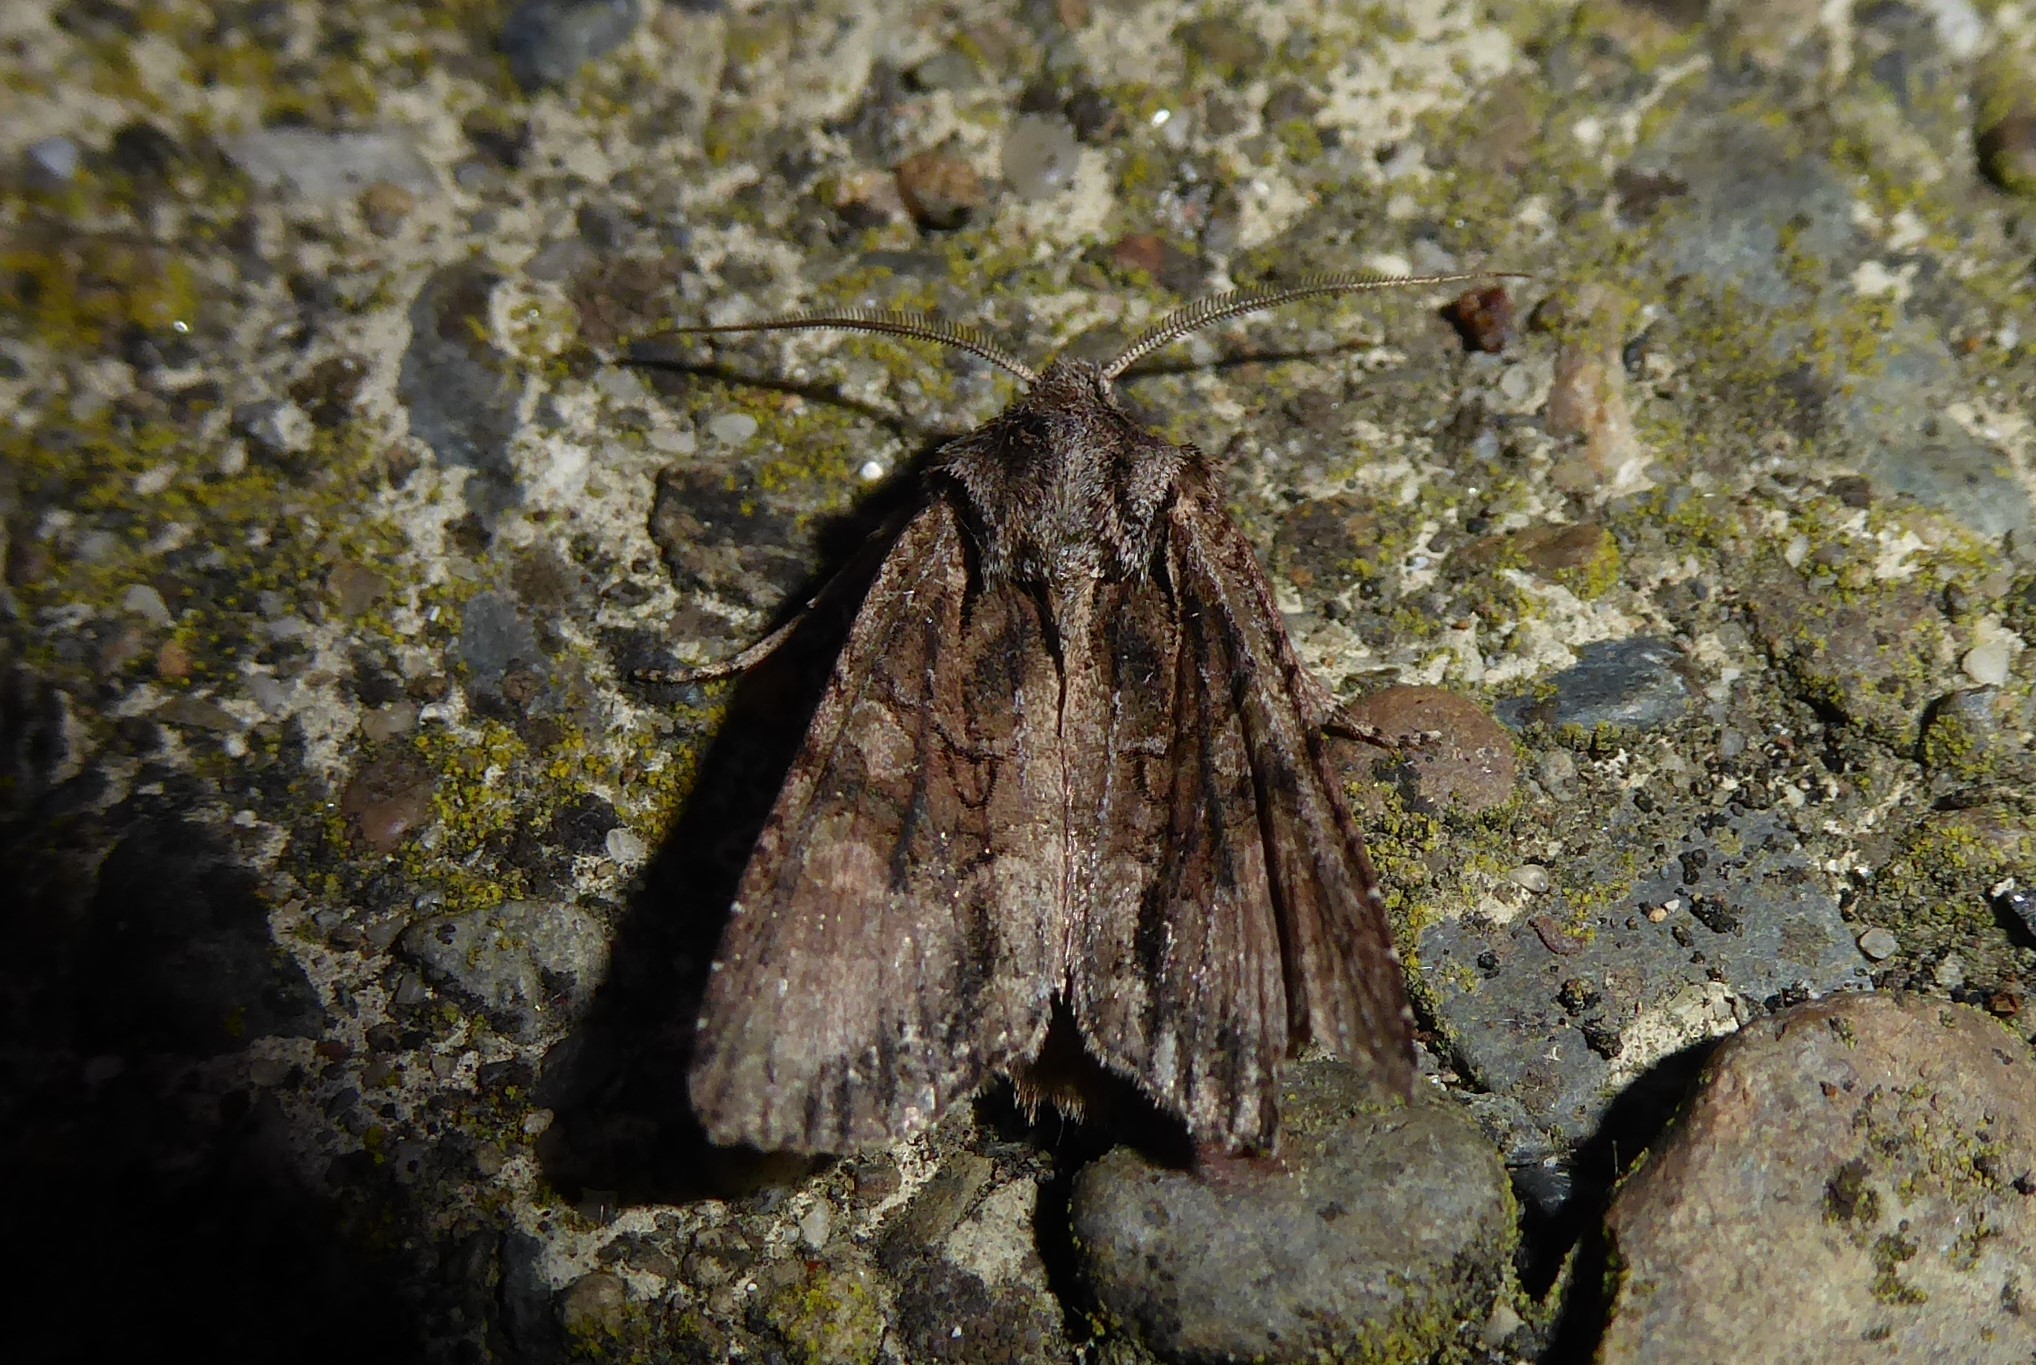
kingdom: Animalia
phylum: Arthropoda
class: Insecta
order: Lepidoptera
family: Noctuidae
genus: Ichneutica
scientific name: Ichneutica mutans
